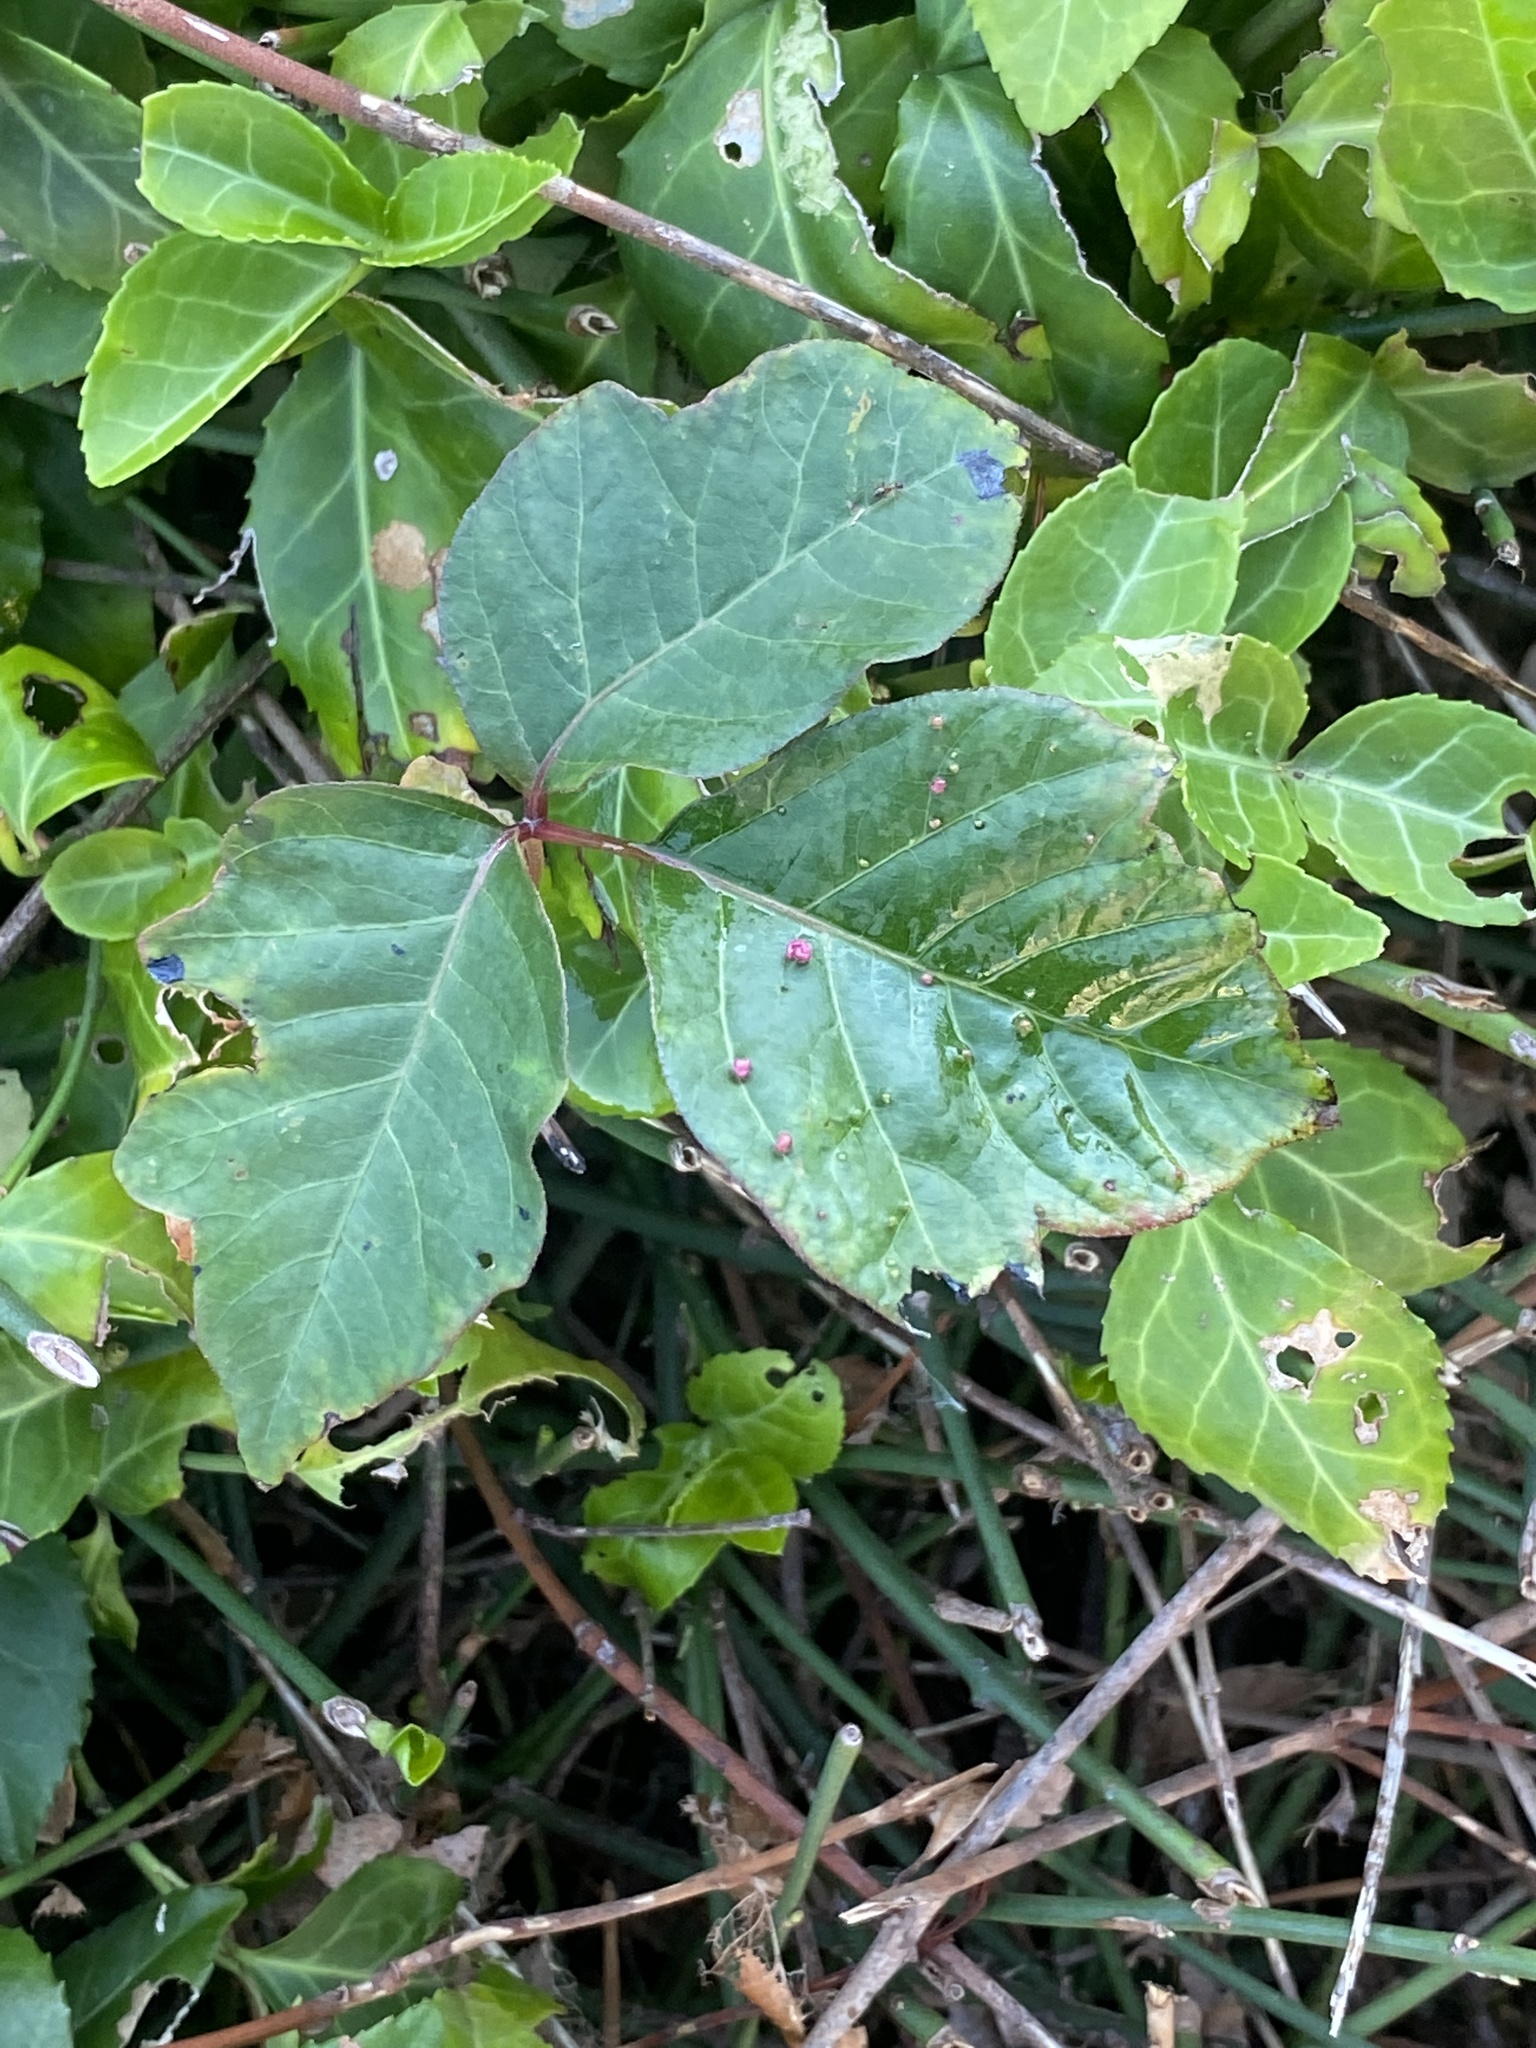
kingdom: Animalia
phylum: Arthropoda
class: Arachnida
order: Trombidiformes
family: Eriophyidae
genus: Aculops
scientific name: Aculops
